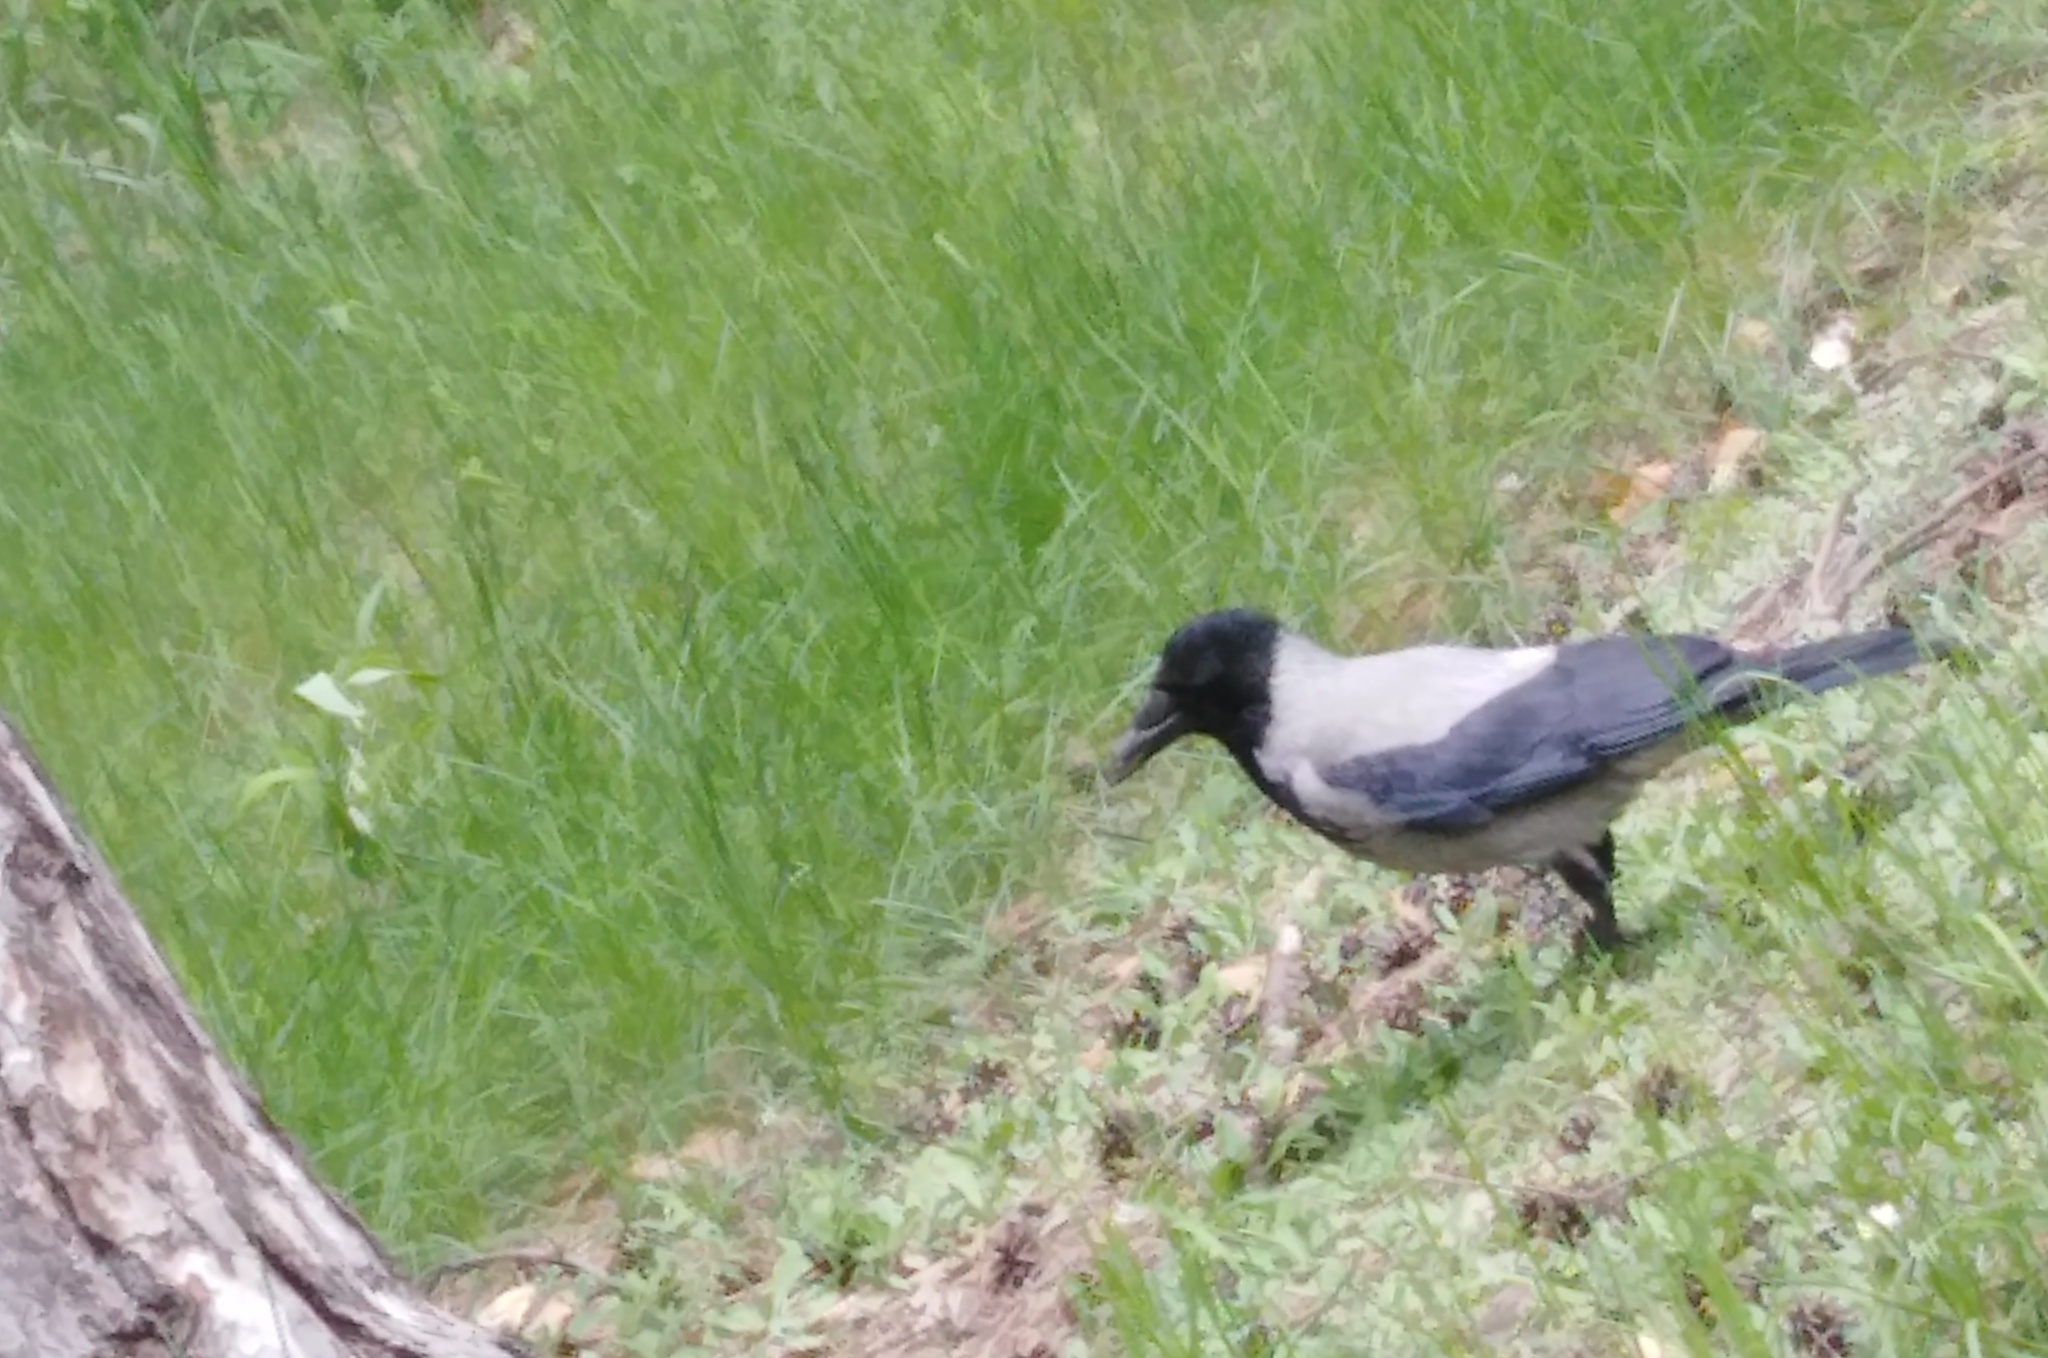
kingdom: Animalia
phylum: Chordata
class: Aves
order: Passeriformes
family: Corvidae
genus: Corvus
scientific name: Corvus cornix
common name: Hooded crow
